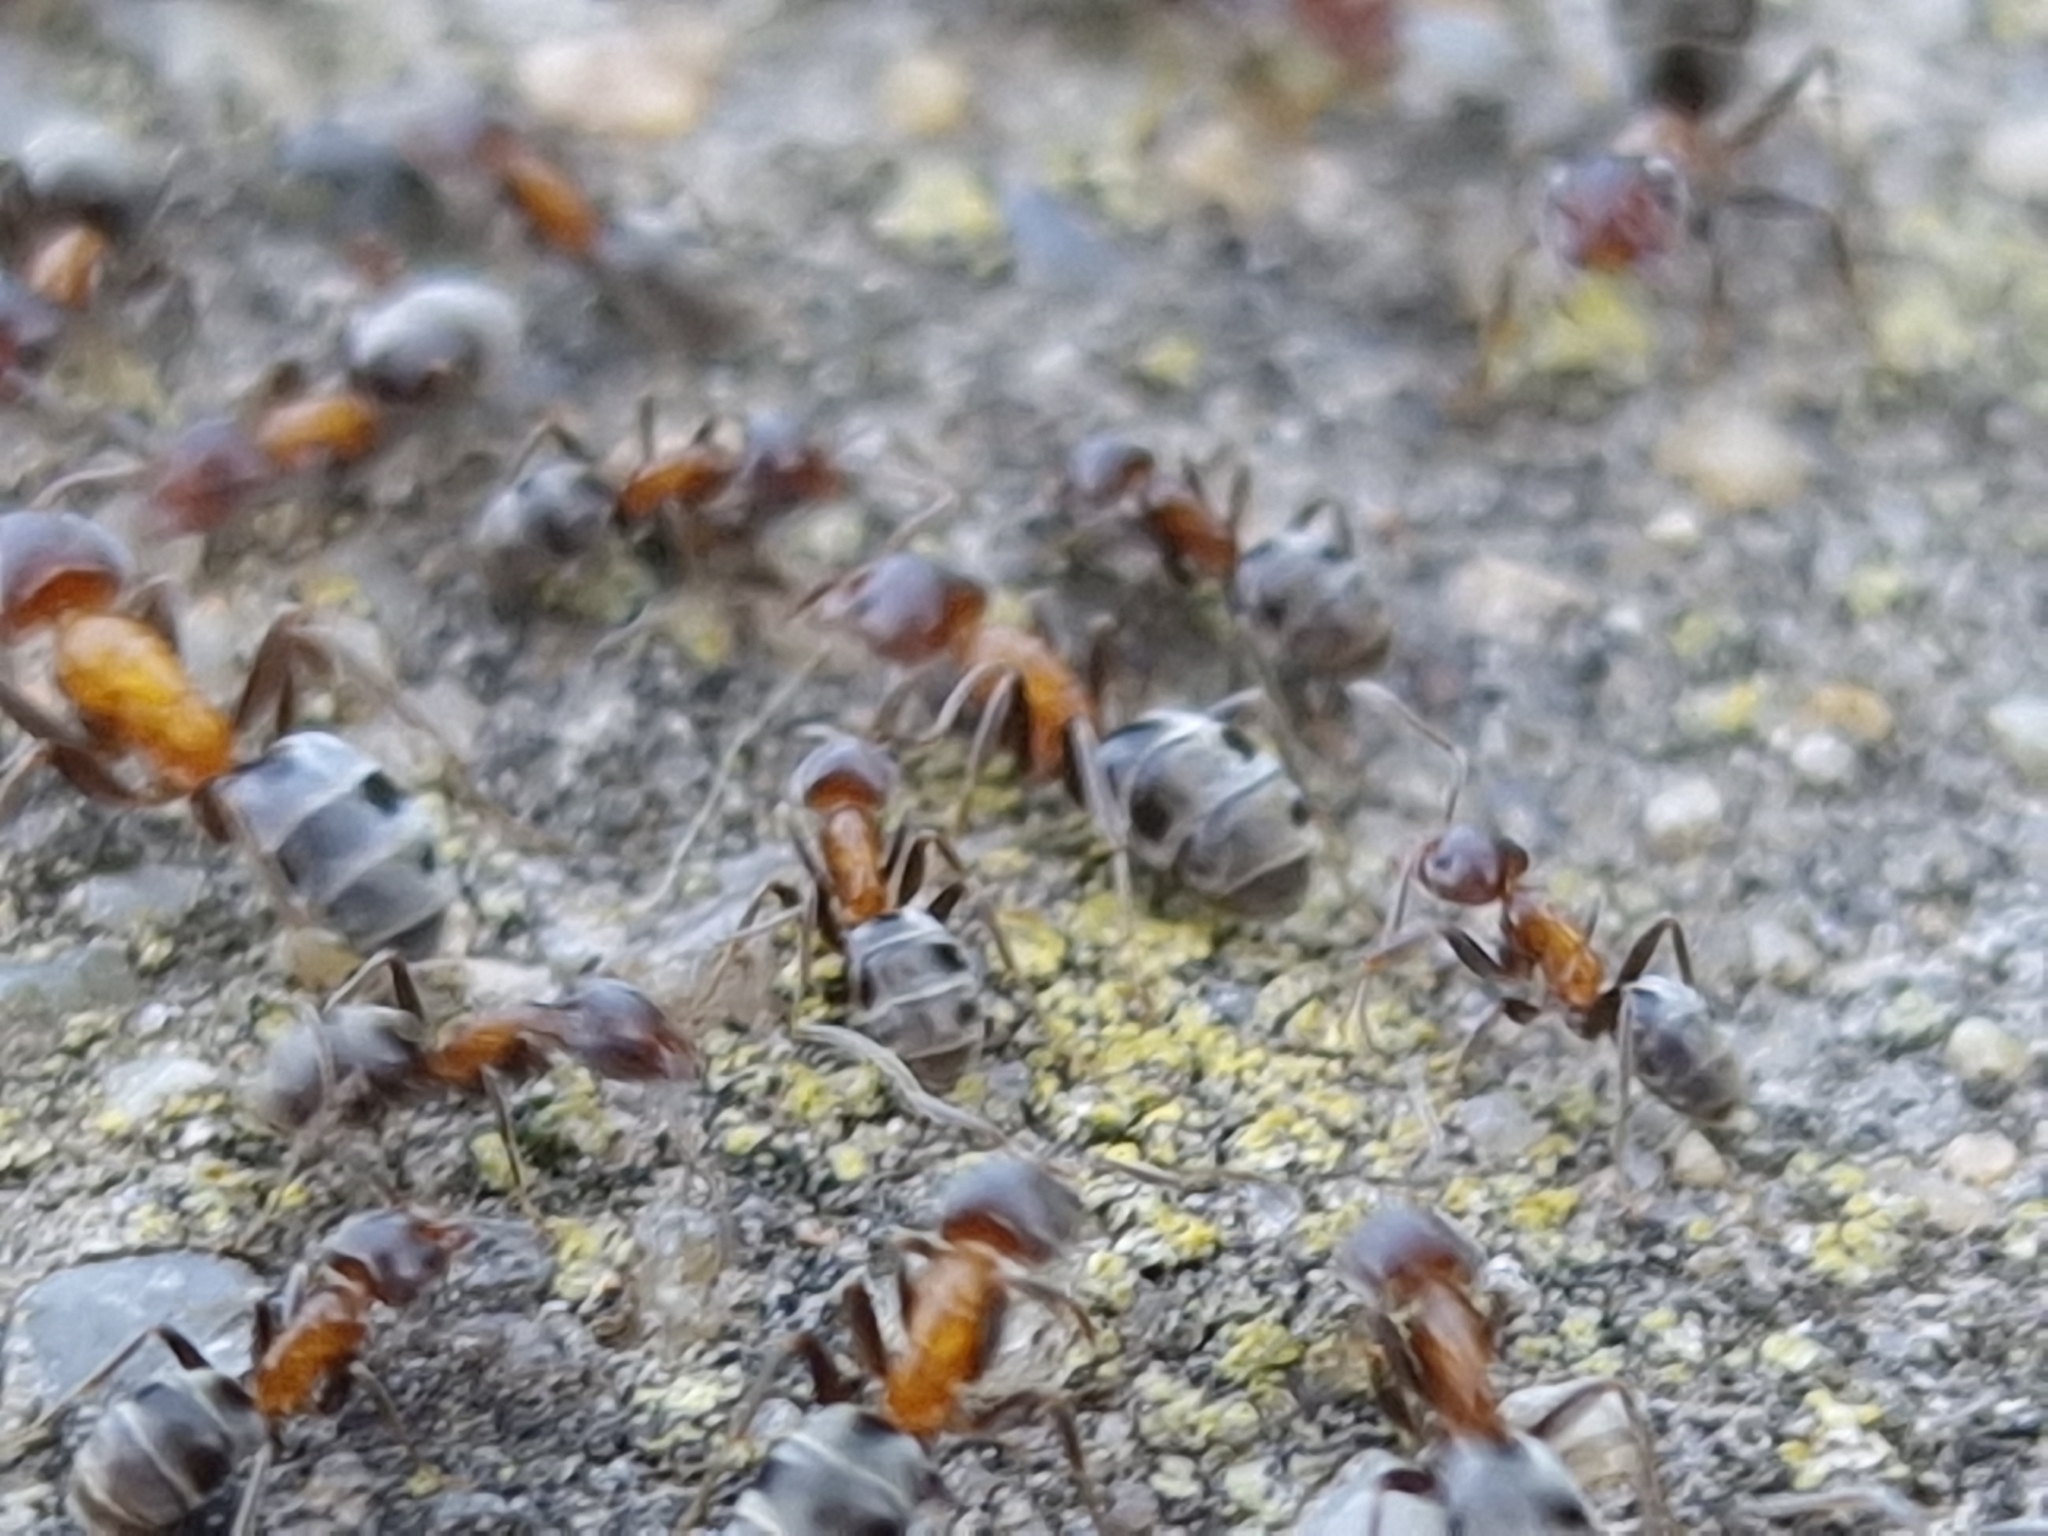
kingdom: Animalia
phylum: Arthropoda
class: Insecta
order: Hymenoptera
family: Formicidae
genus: Liometopum
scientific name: Liometopum microcephalum
